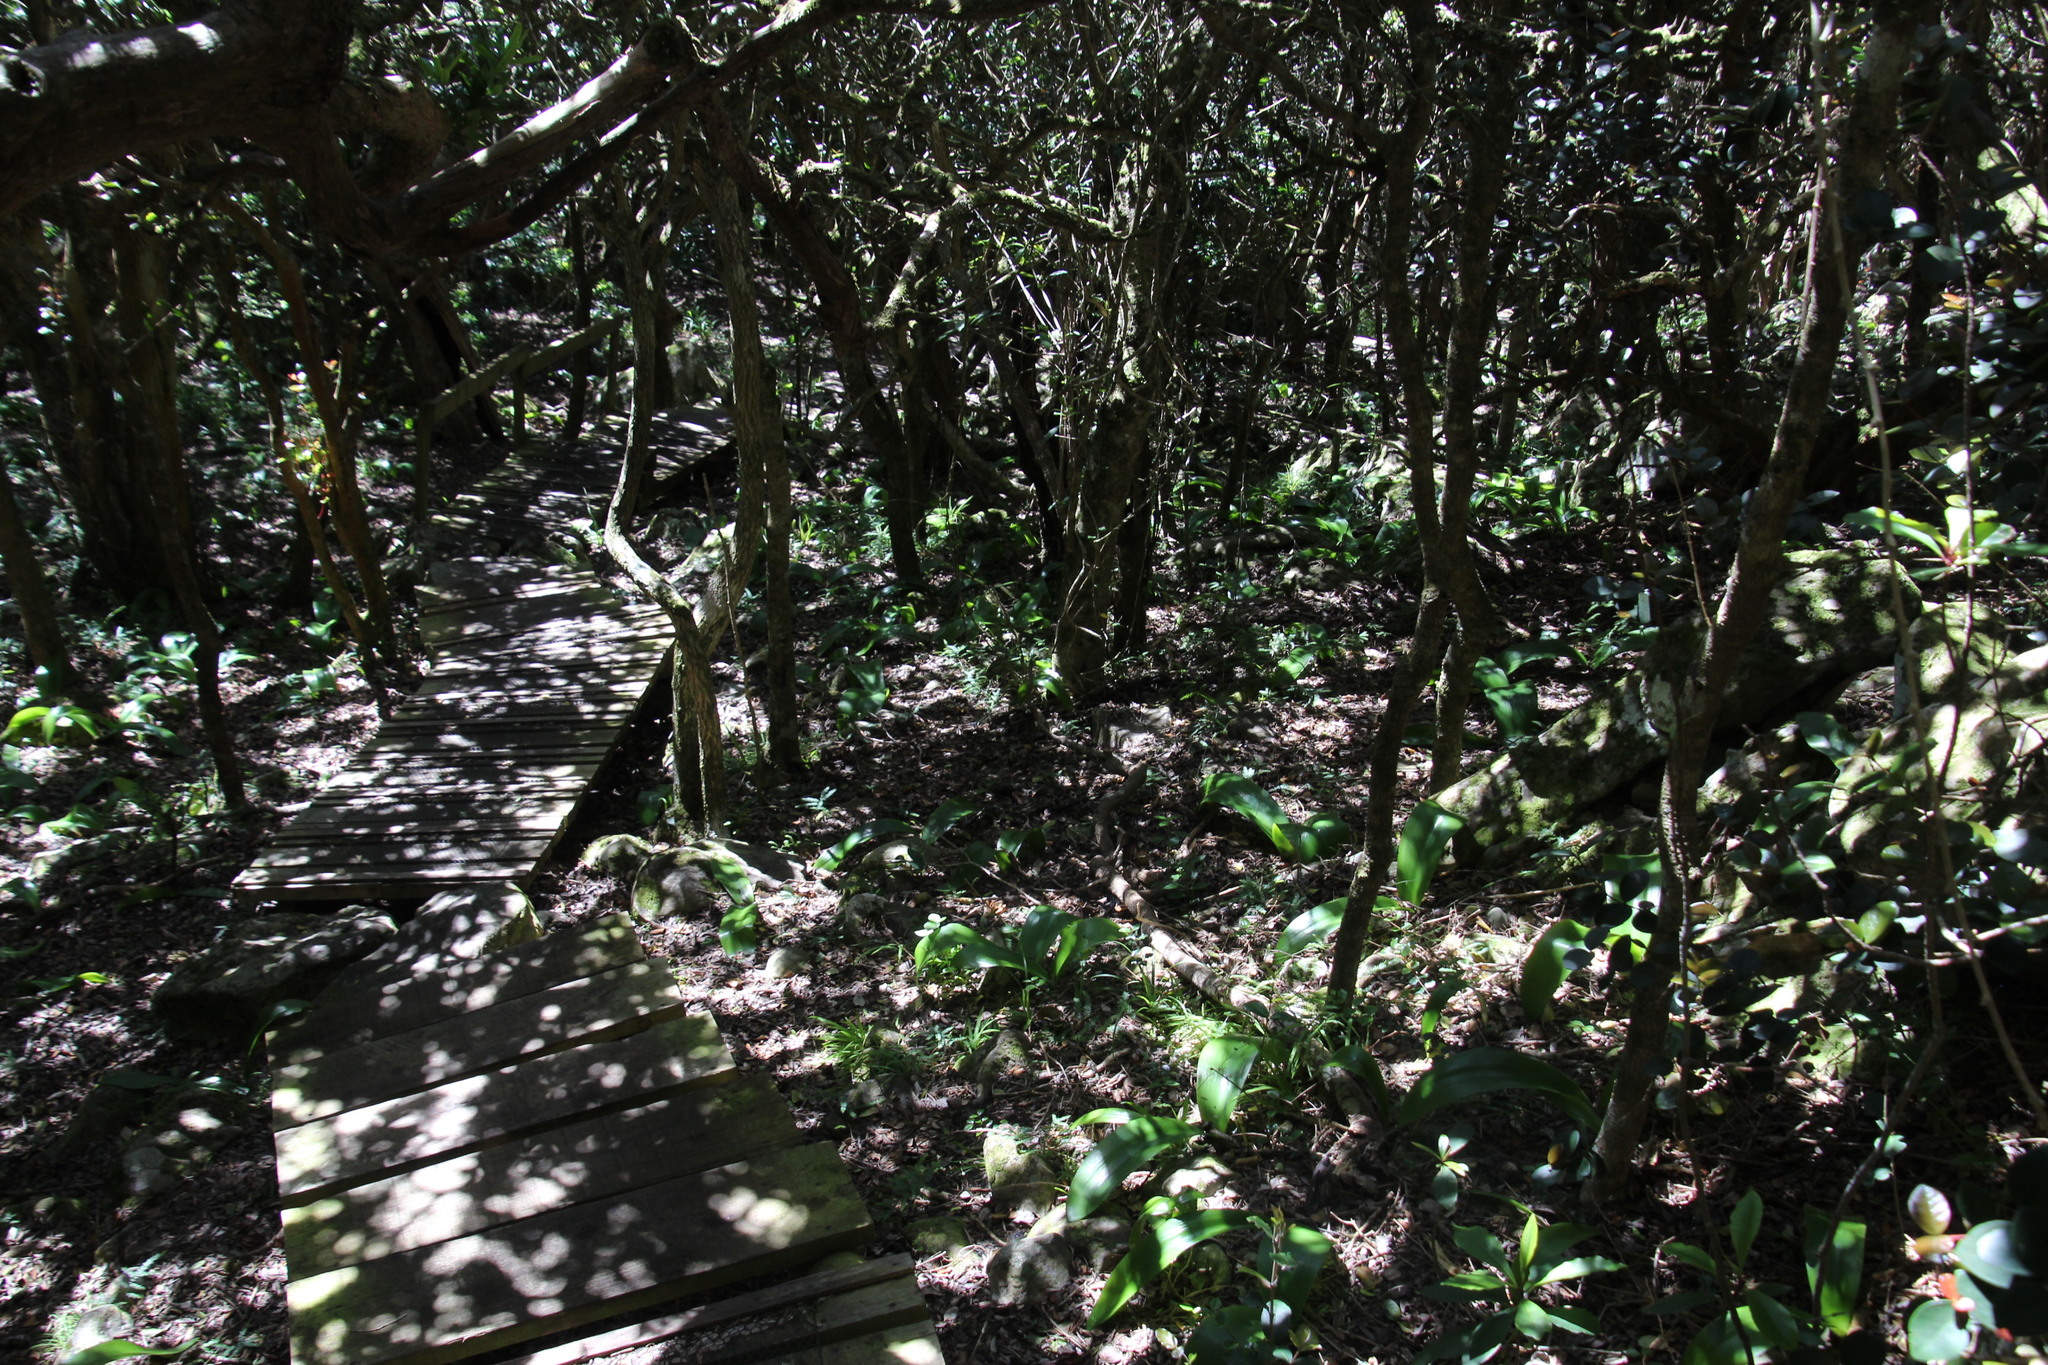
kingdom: Plantae
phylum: Tracheophyta
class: Liliopsida
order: Asparagales
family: Amaryllidaceae
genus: Haemanthus
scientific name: Haemanthus coccineus
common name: Cape-tulip
